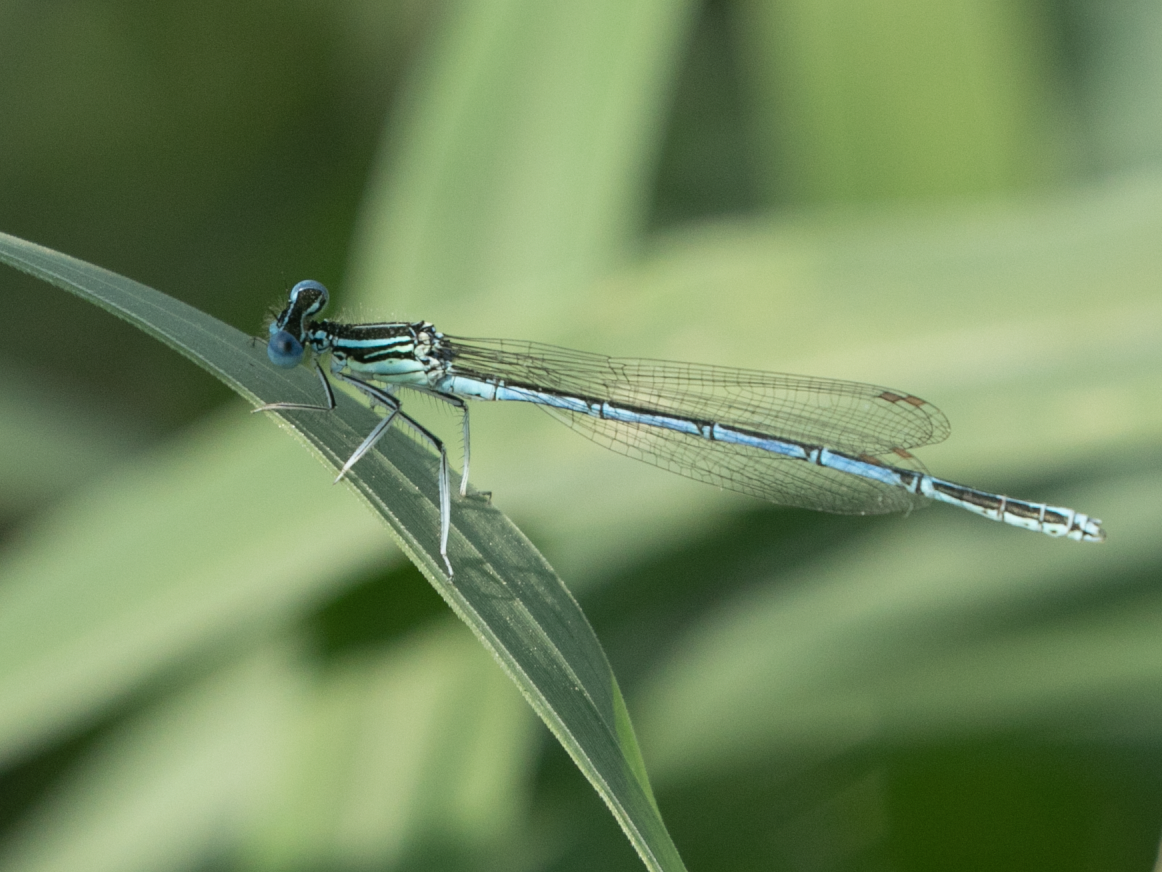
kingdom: Animalia
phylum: Arthropoda
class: Insecta
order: Odonata
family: Platycnemididae
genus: Platycnemis
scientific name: Platycnemis pennipes
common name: White-legged damselfly
